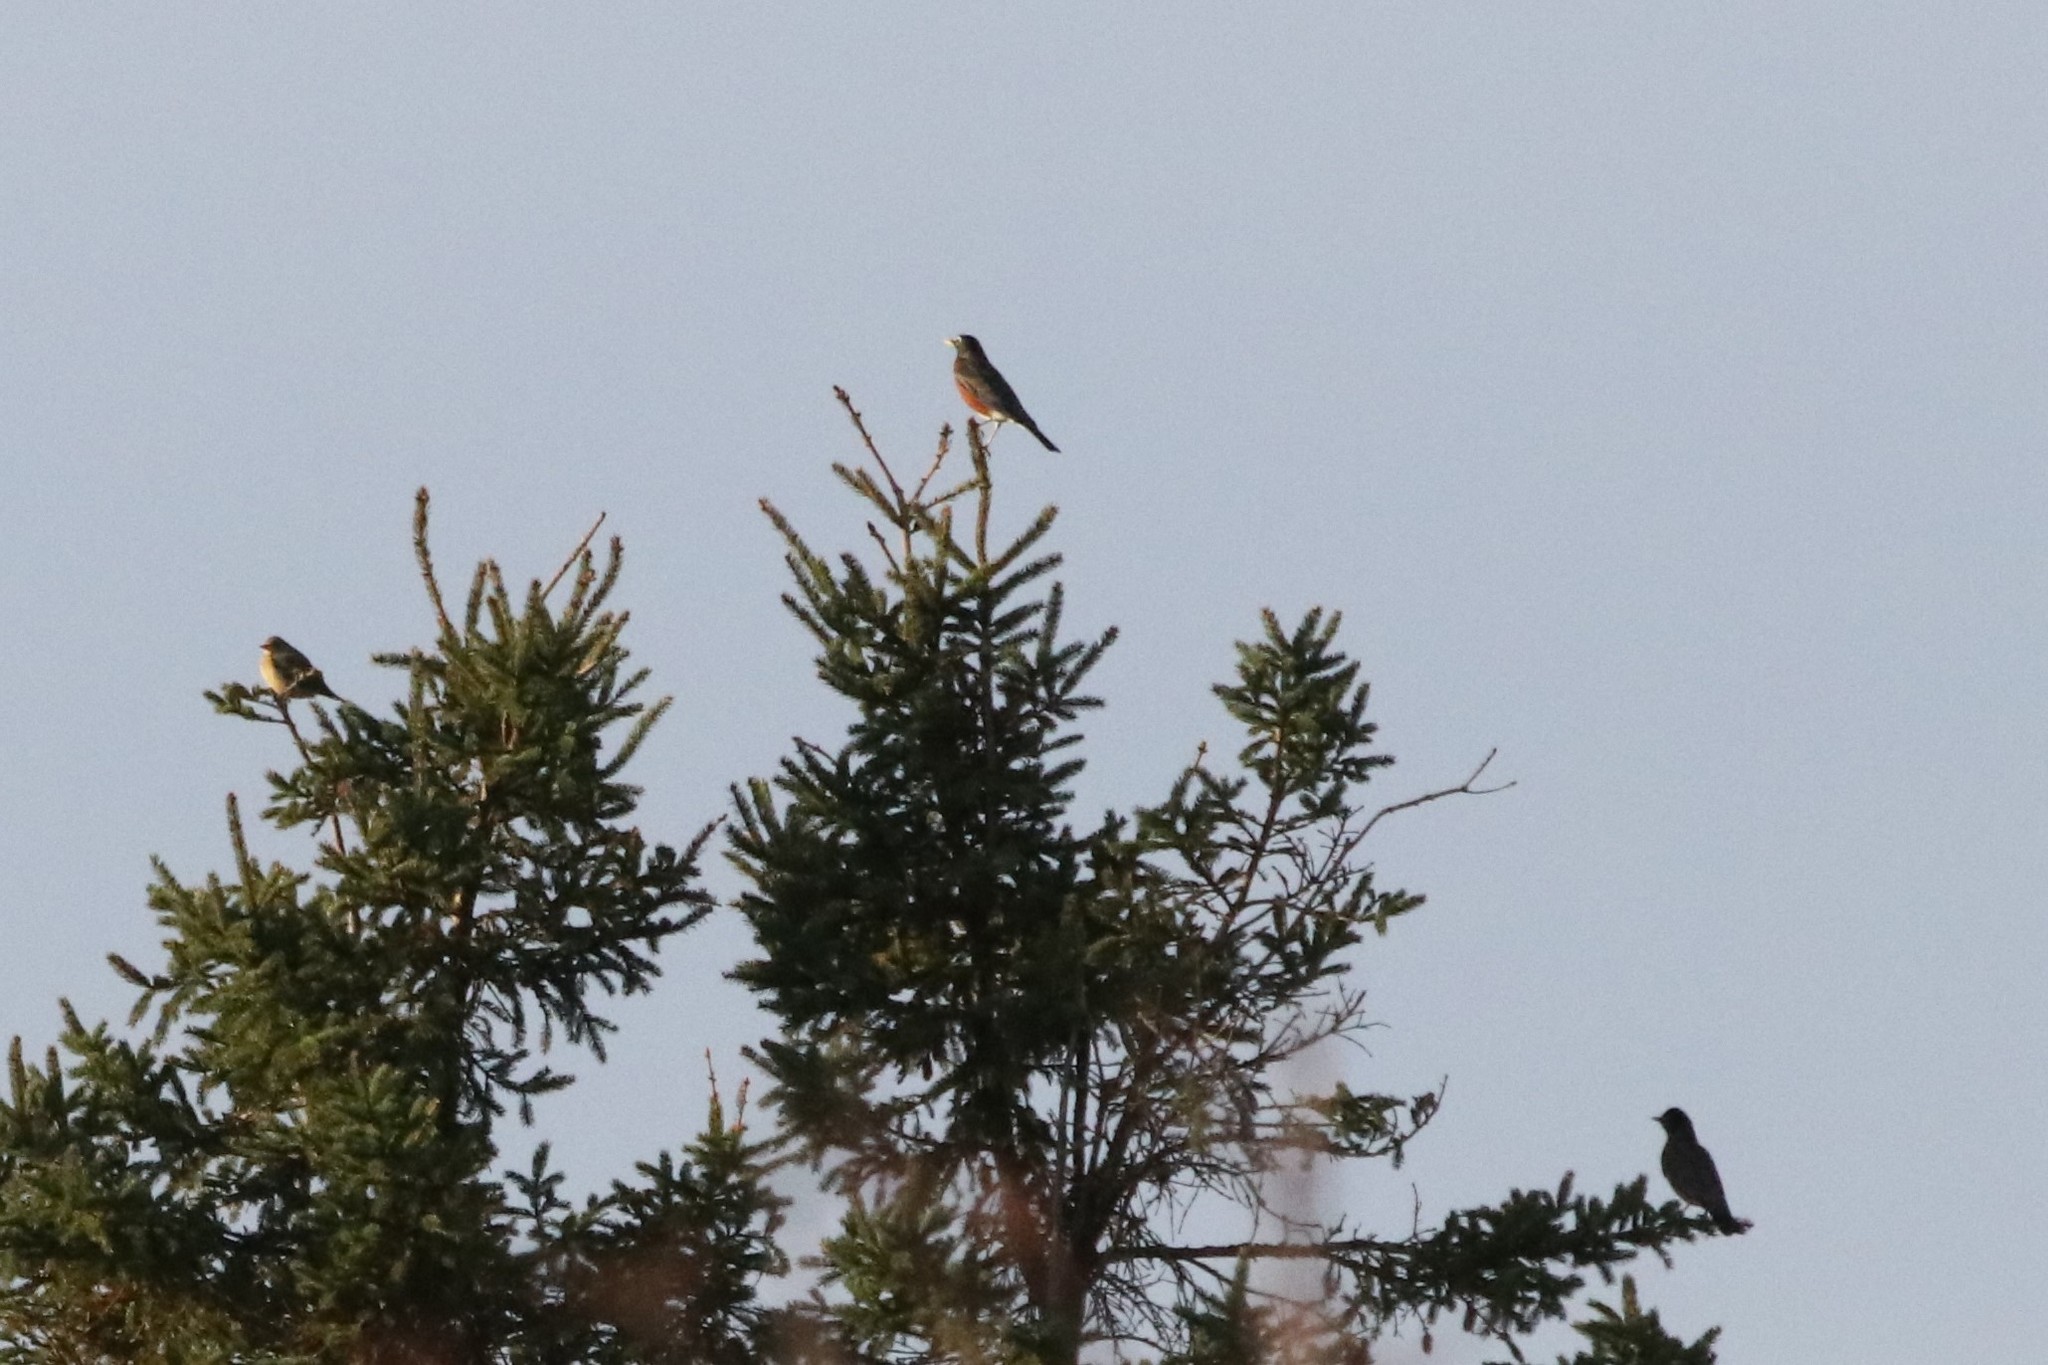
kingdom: Animalia
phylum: Chordata
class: Aves
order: Passeriformes
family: Turdidae
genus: Turdus
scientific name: Turdus migratorius
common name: American robin
